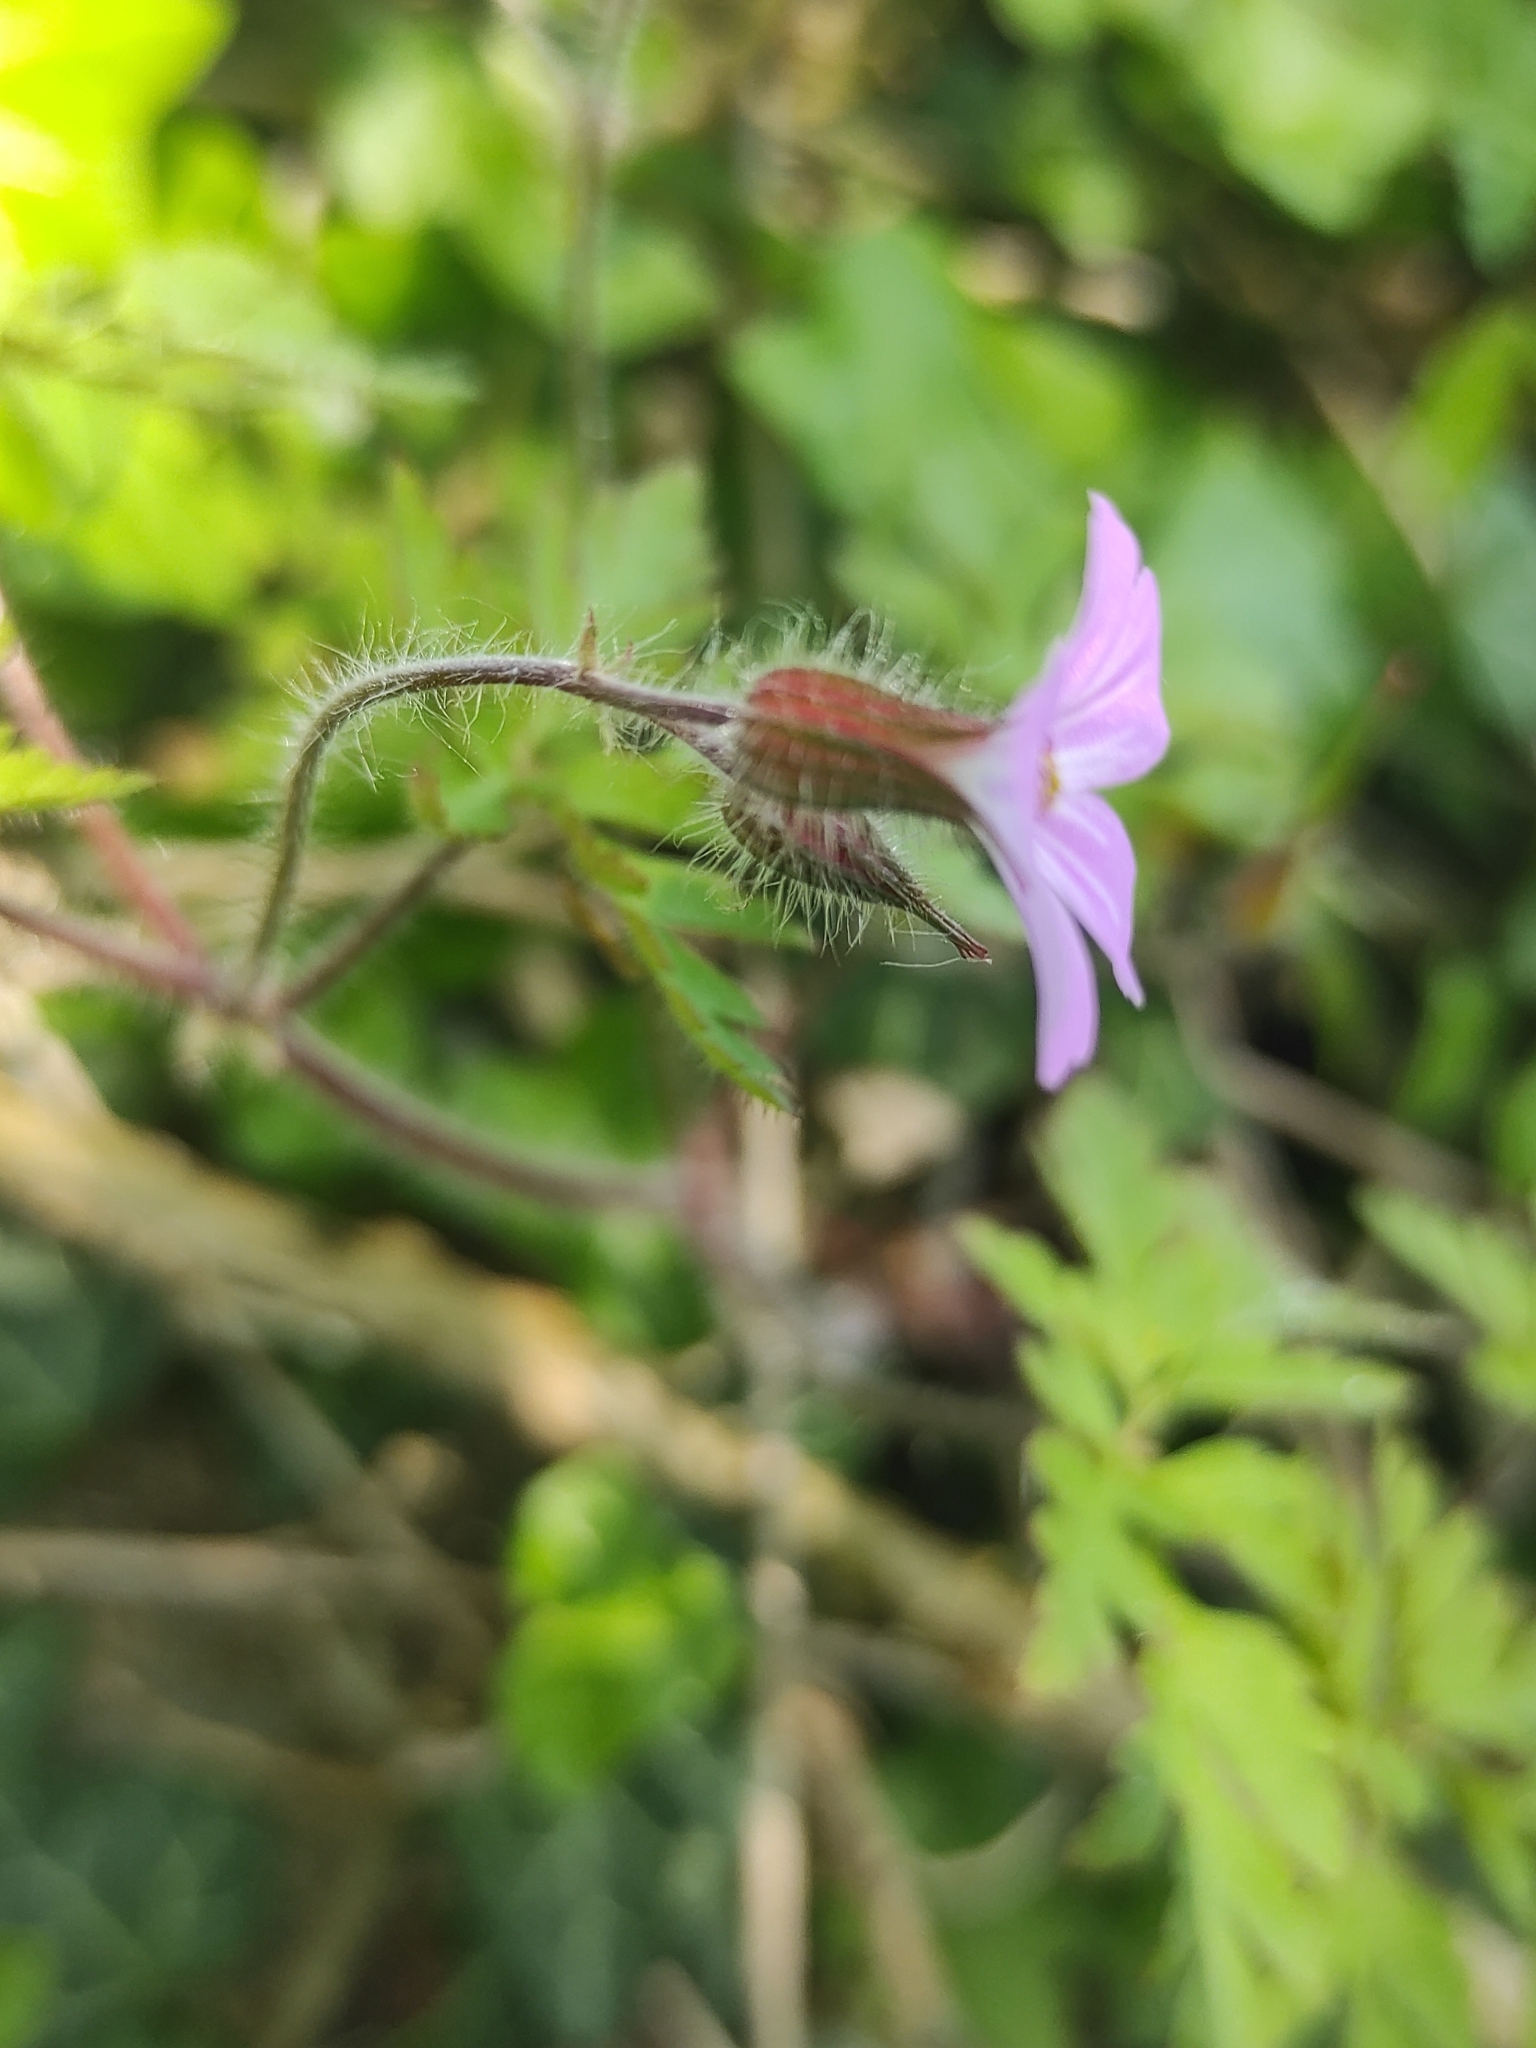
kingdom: Plantae
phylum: Tracheophyta
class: Magnoliopsida
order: Geraniales
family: Geraniaceae
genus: Geranium
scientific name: Geranium robertianum
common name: Herb-robert
